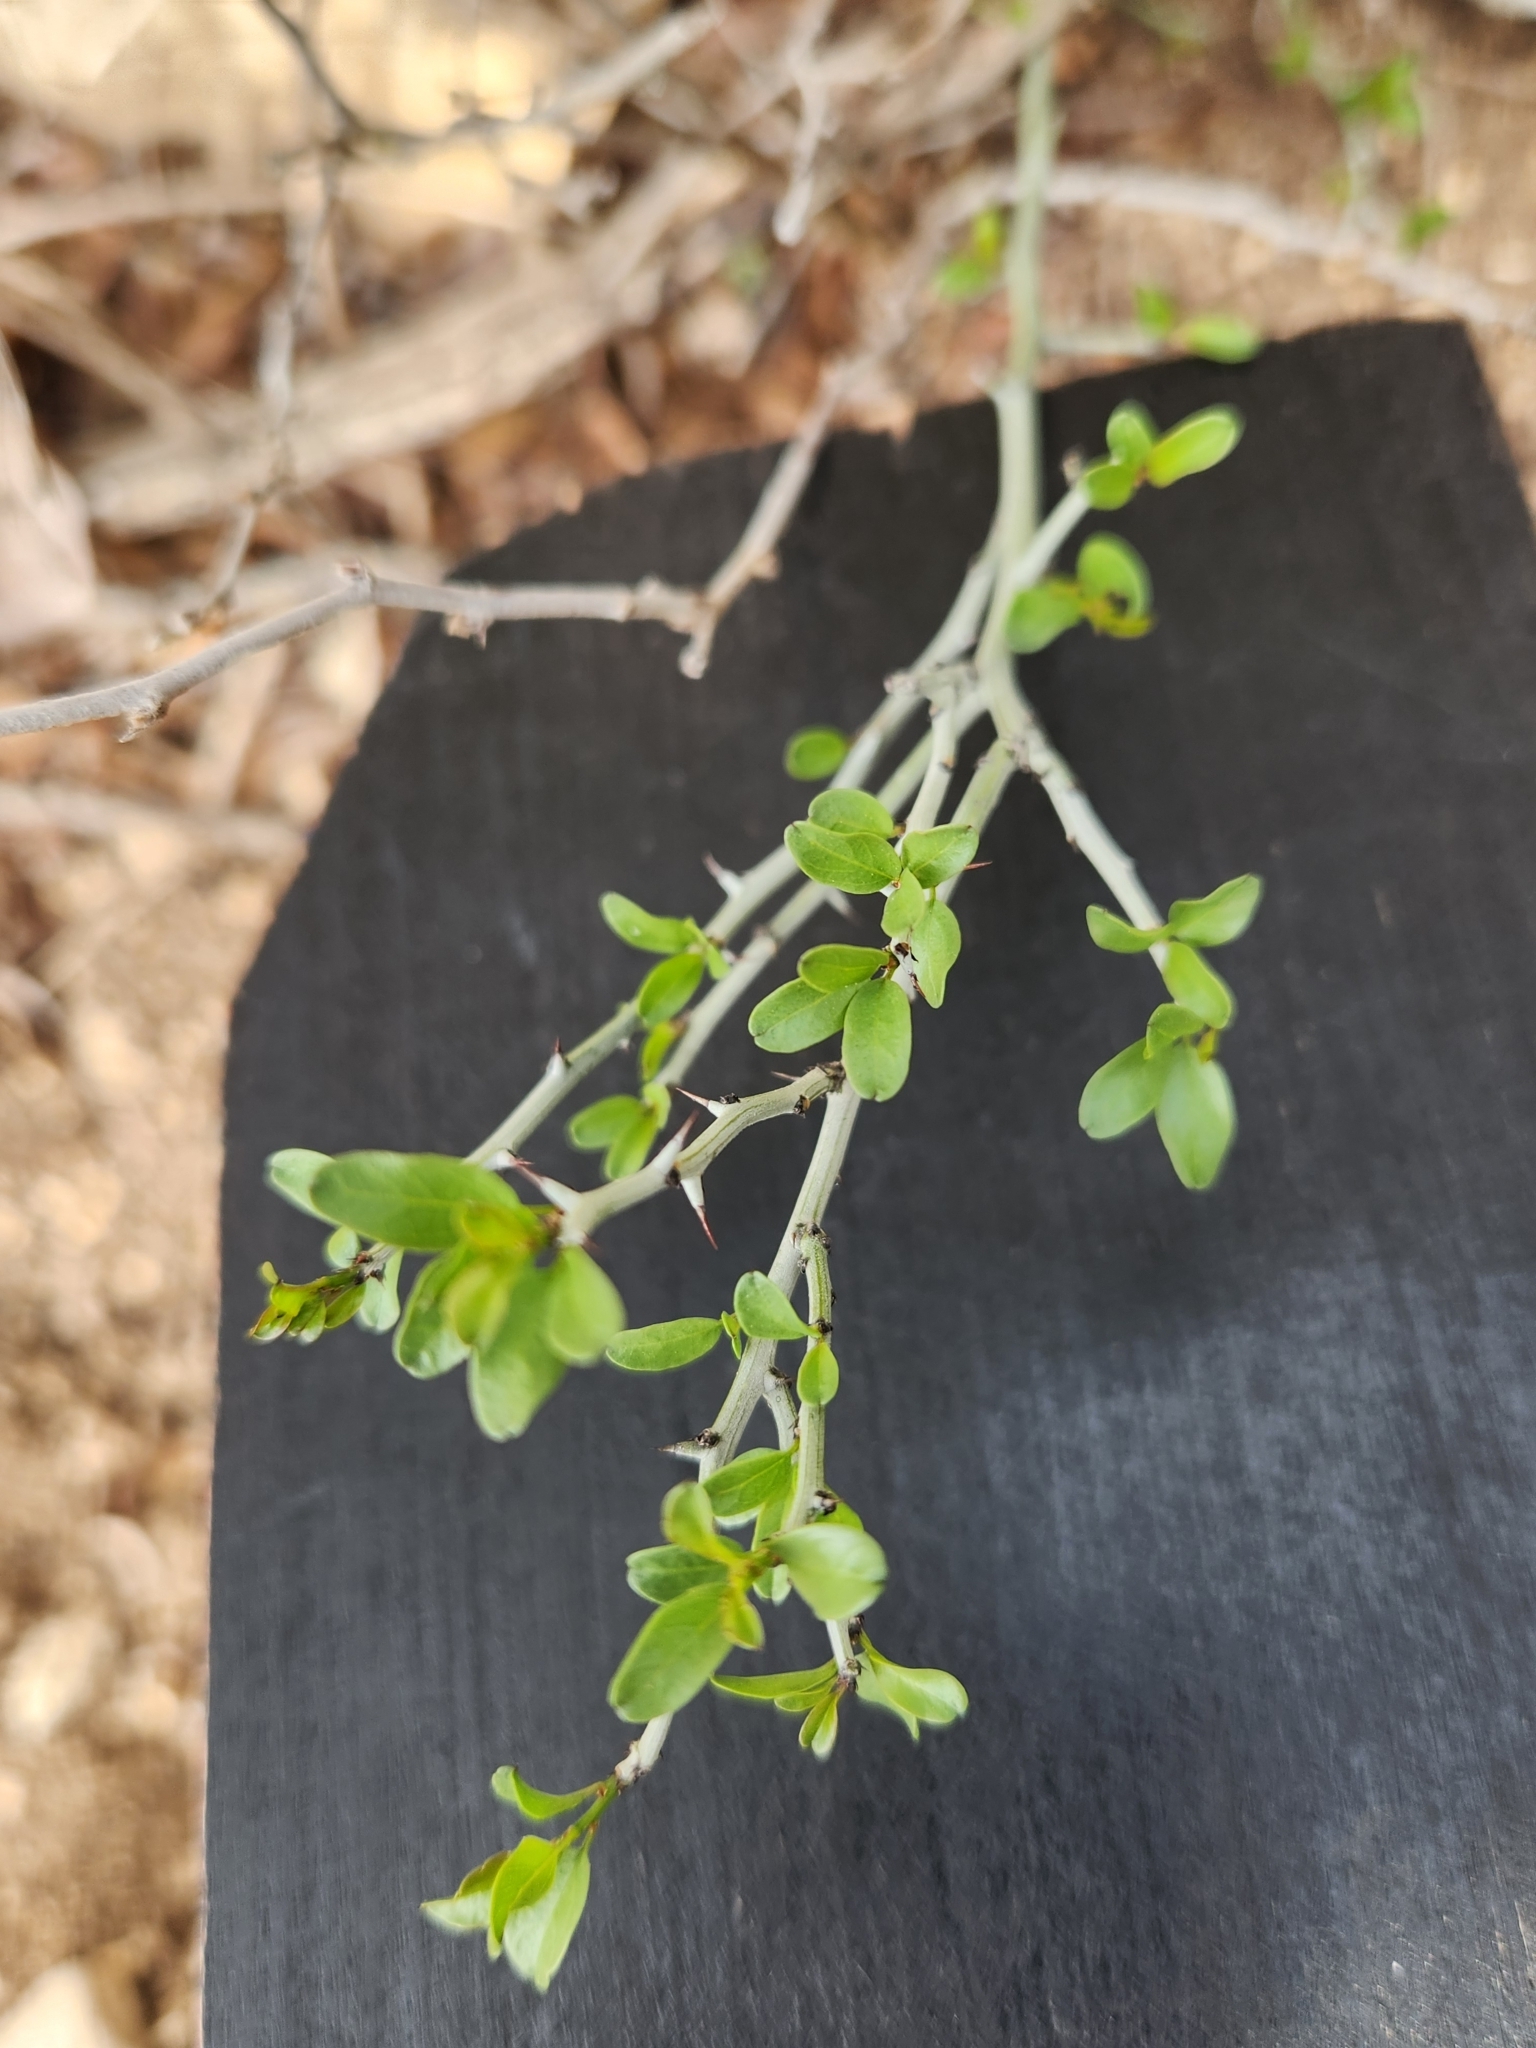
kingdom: Plantae
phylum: Tracheophyta
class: Magnoliopsida
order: Rosales
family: Rhamnaceae
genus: Sarcomphalus
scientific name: Sarcomphalus obtusifolius
